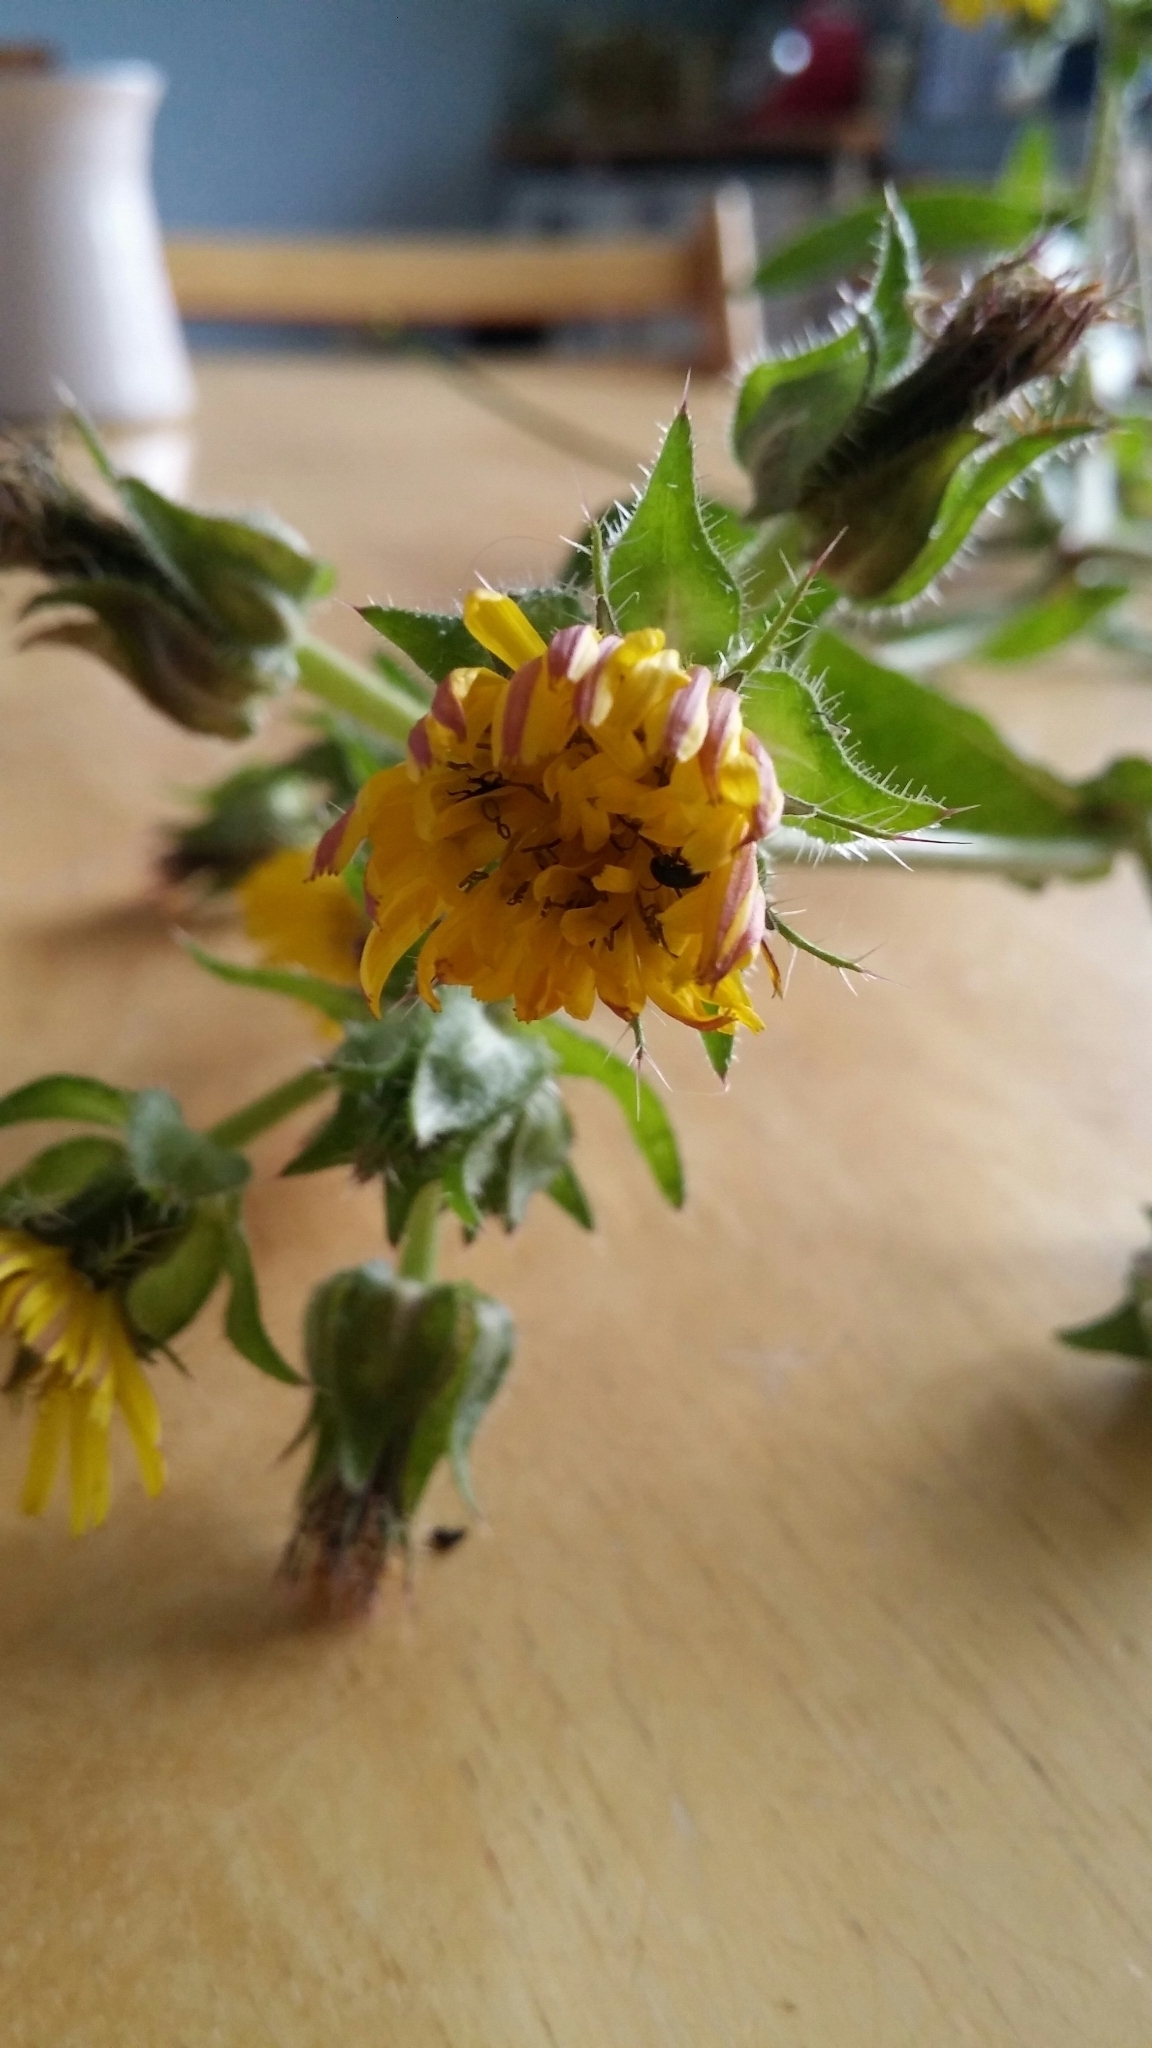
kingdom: Plantae
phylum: Tracheophyta
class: Magnoliopsida
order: Asterales
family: Asteraceae
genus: Helminthotheca
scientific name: Helminthotheca echioides
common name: Ox-tongue
